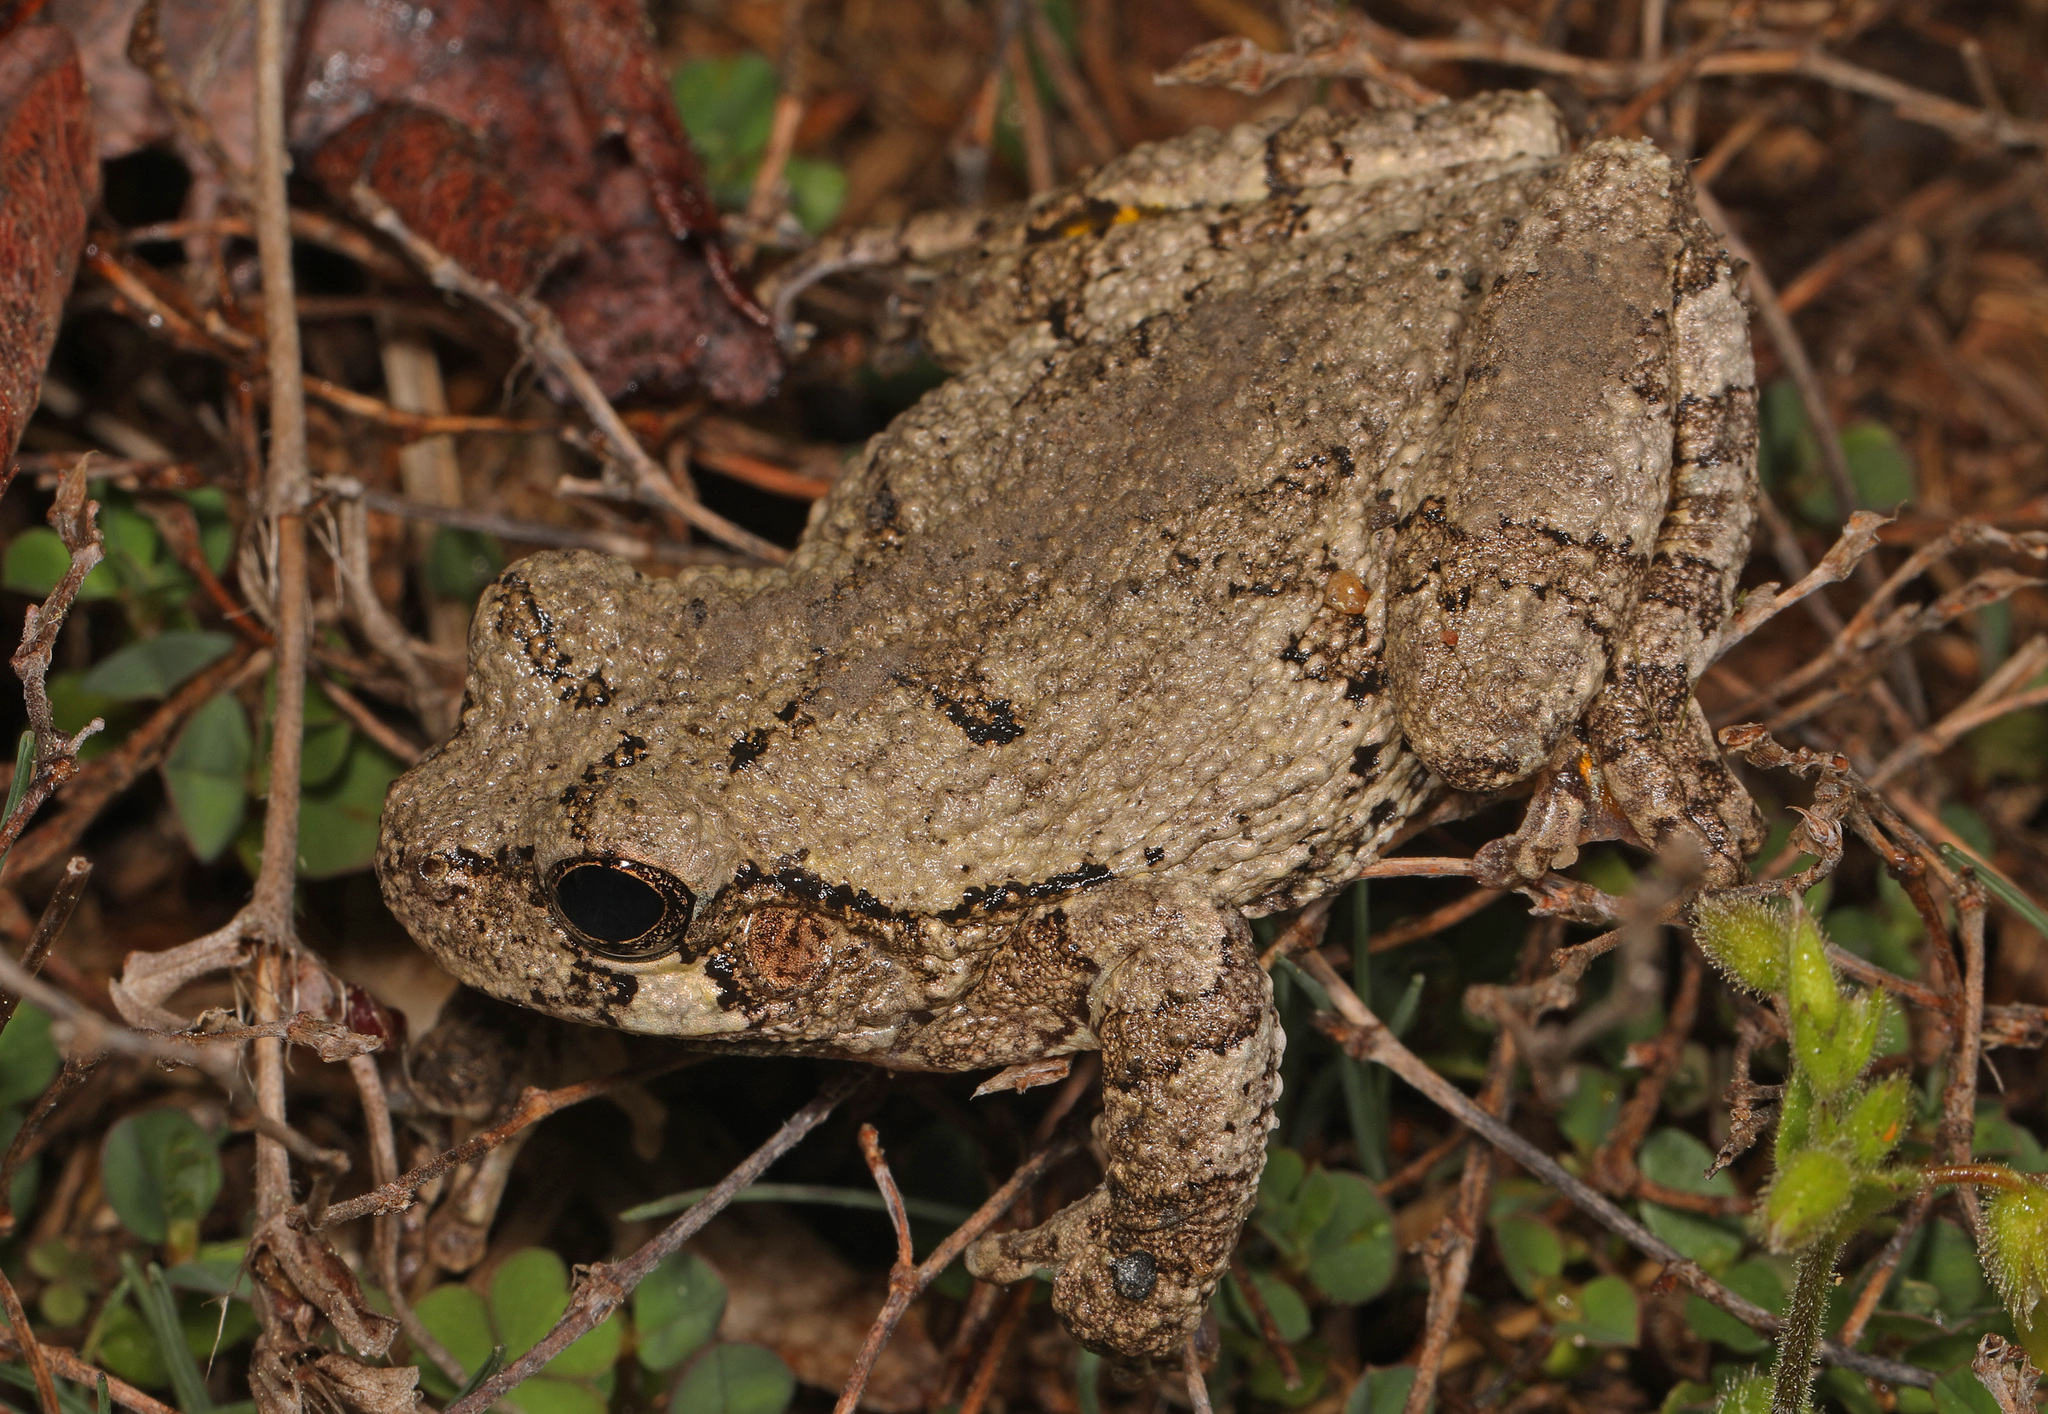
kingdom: Animalia
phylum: Chordata
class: Amphibia
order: Anura
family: Hylidae
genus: Hyla
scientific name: Hyla
